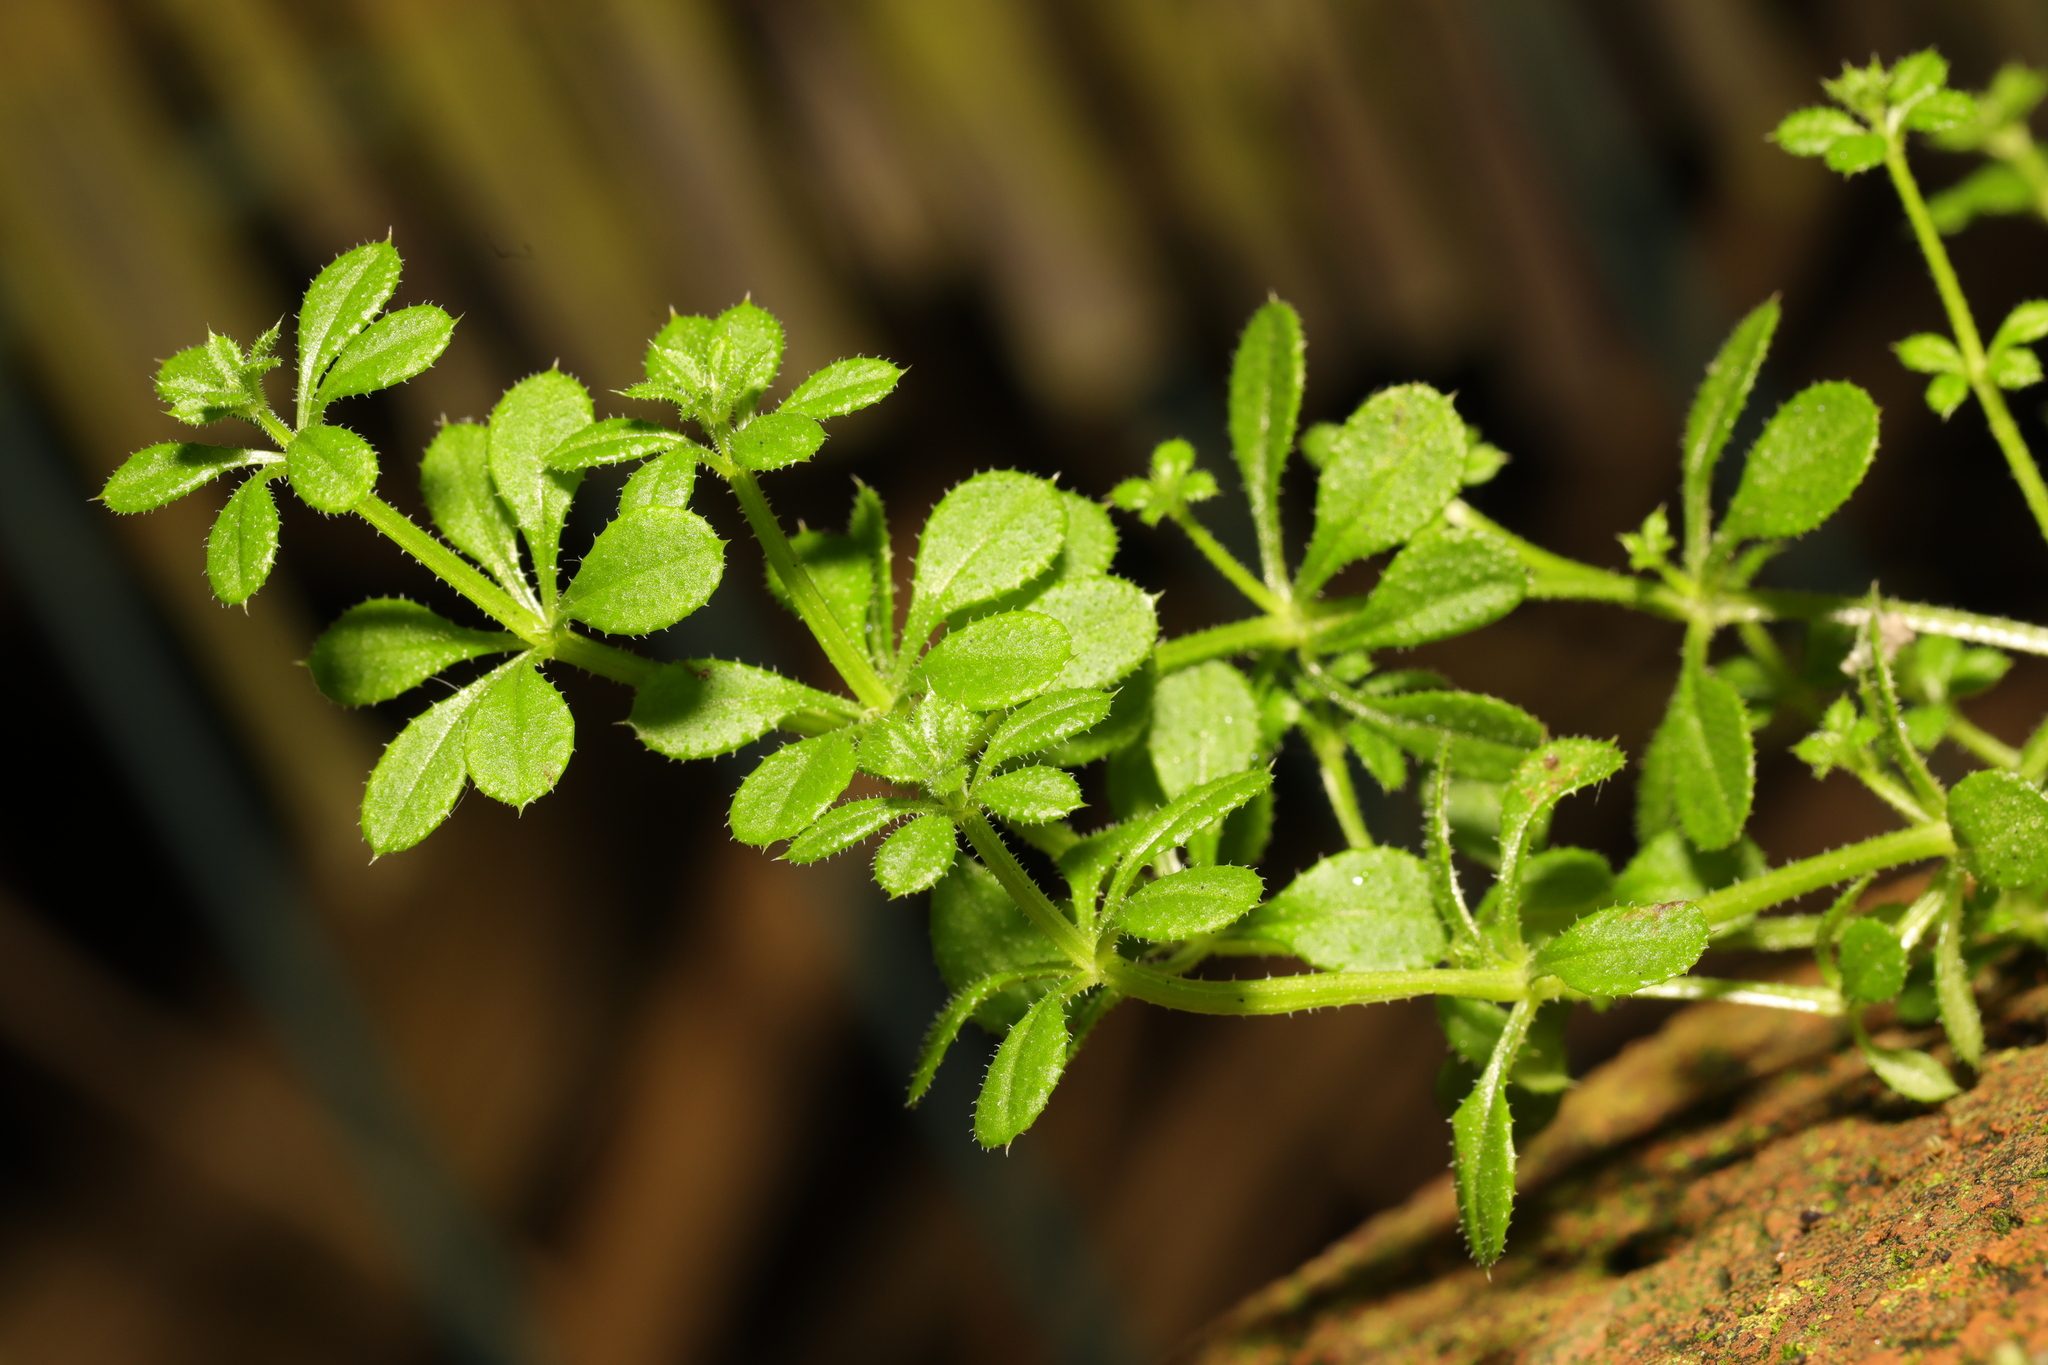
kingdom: Plantae
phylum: Tracheophyta
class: Magnoliopsida
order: Gentianales
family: Rubiaceae
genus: Galium
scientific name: Galium aparine
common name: Cleavers
